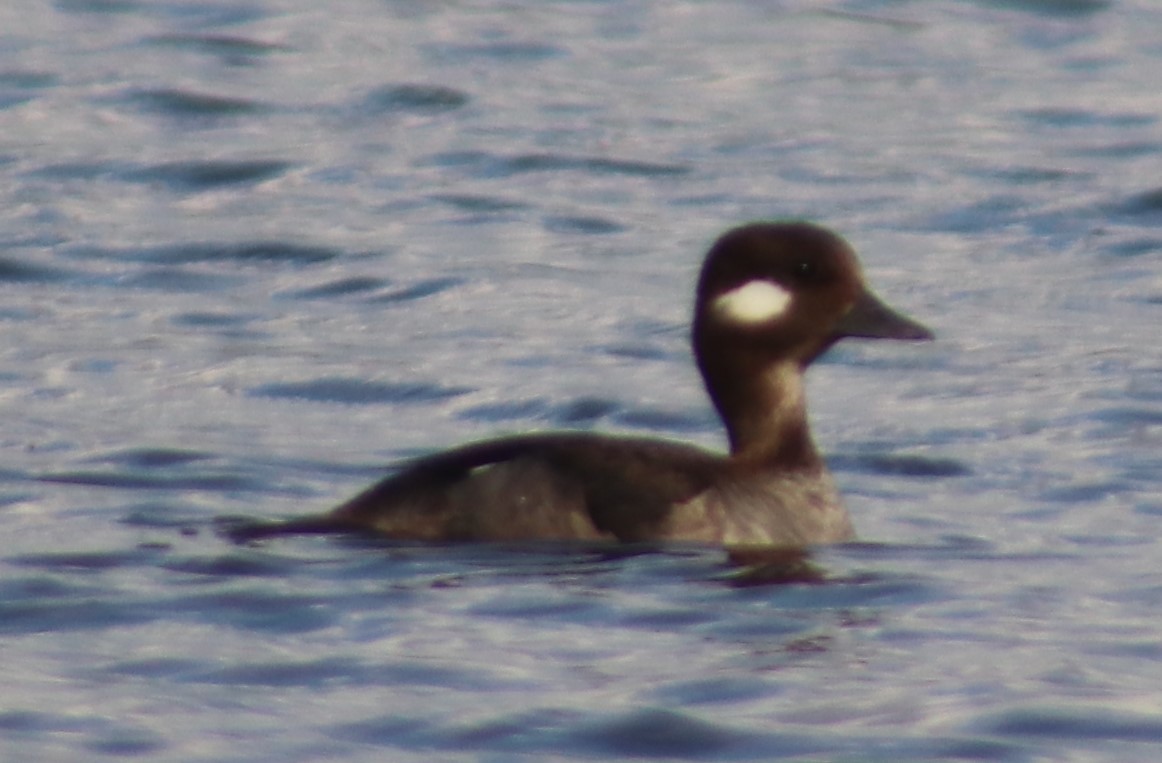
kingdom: Animalia
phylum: Chordata
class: Aves
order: Anseriformes
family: Anatidae
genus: Bucephala
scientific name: Bucephala albeola
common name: Bufflehead
